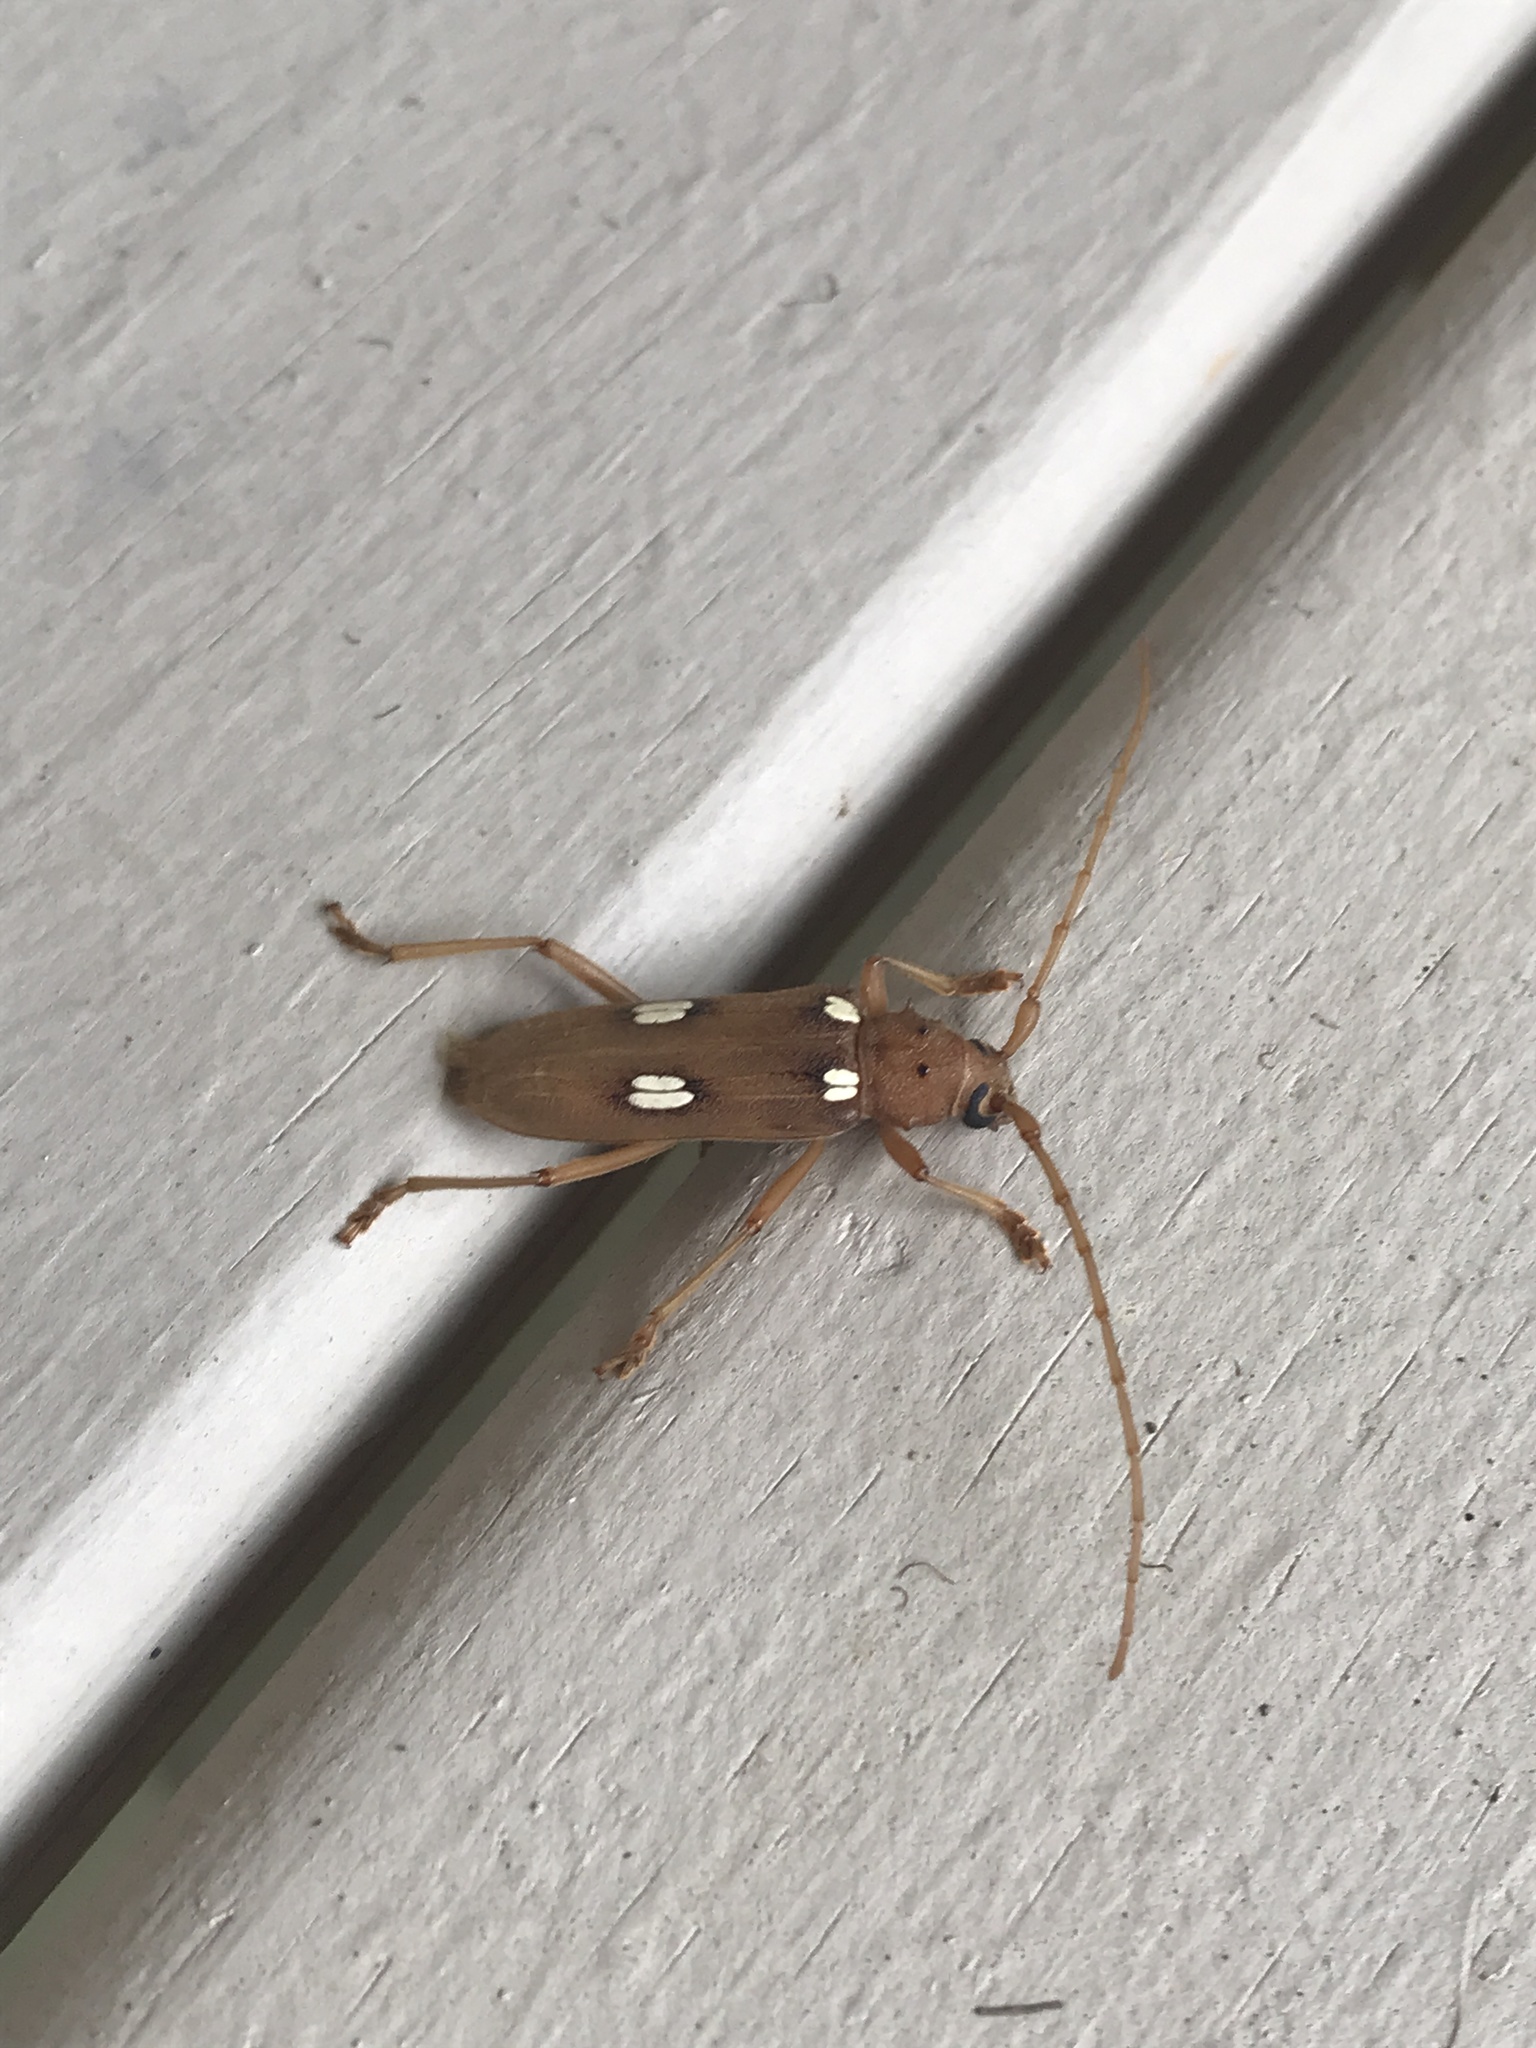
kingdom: Animalia
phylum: Arthropoda
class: Insecta
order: Coleoptera
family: Cerambycidae
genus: Eburia
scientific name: Eburia quadrigeminata
